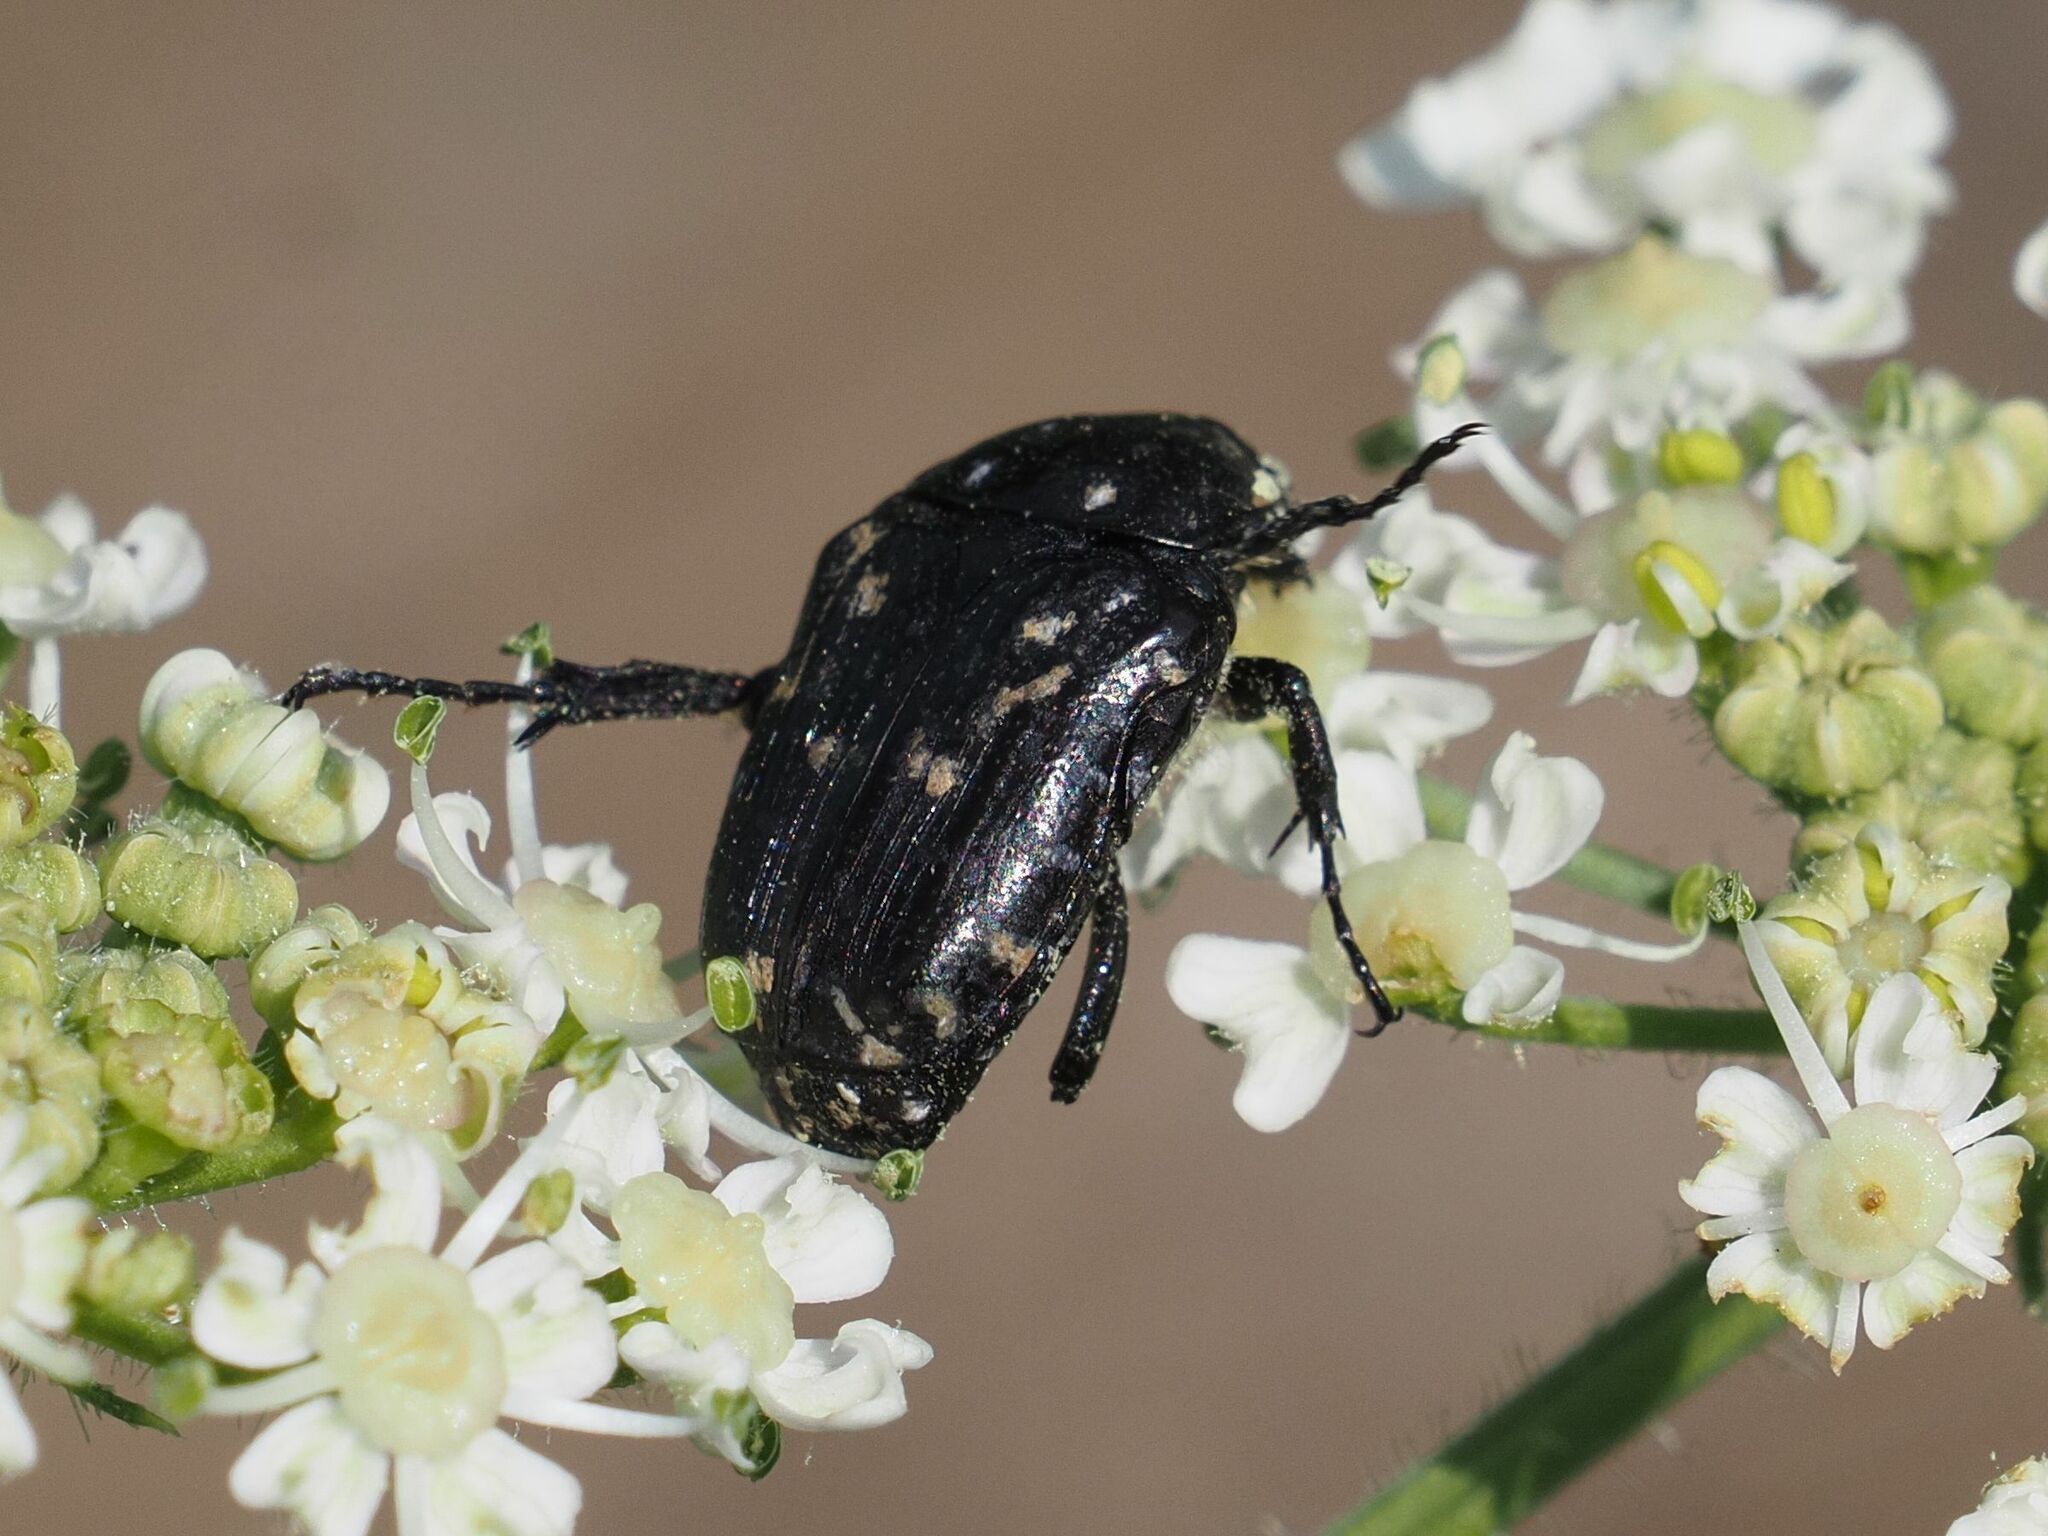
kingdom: Animalia
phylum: Arthropoda
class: Insecta
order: Coleoptera
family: Scarabaeidae
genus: Oxythyrea
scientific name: Oxythyrea funesta
